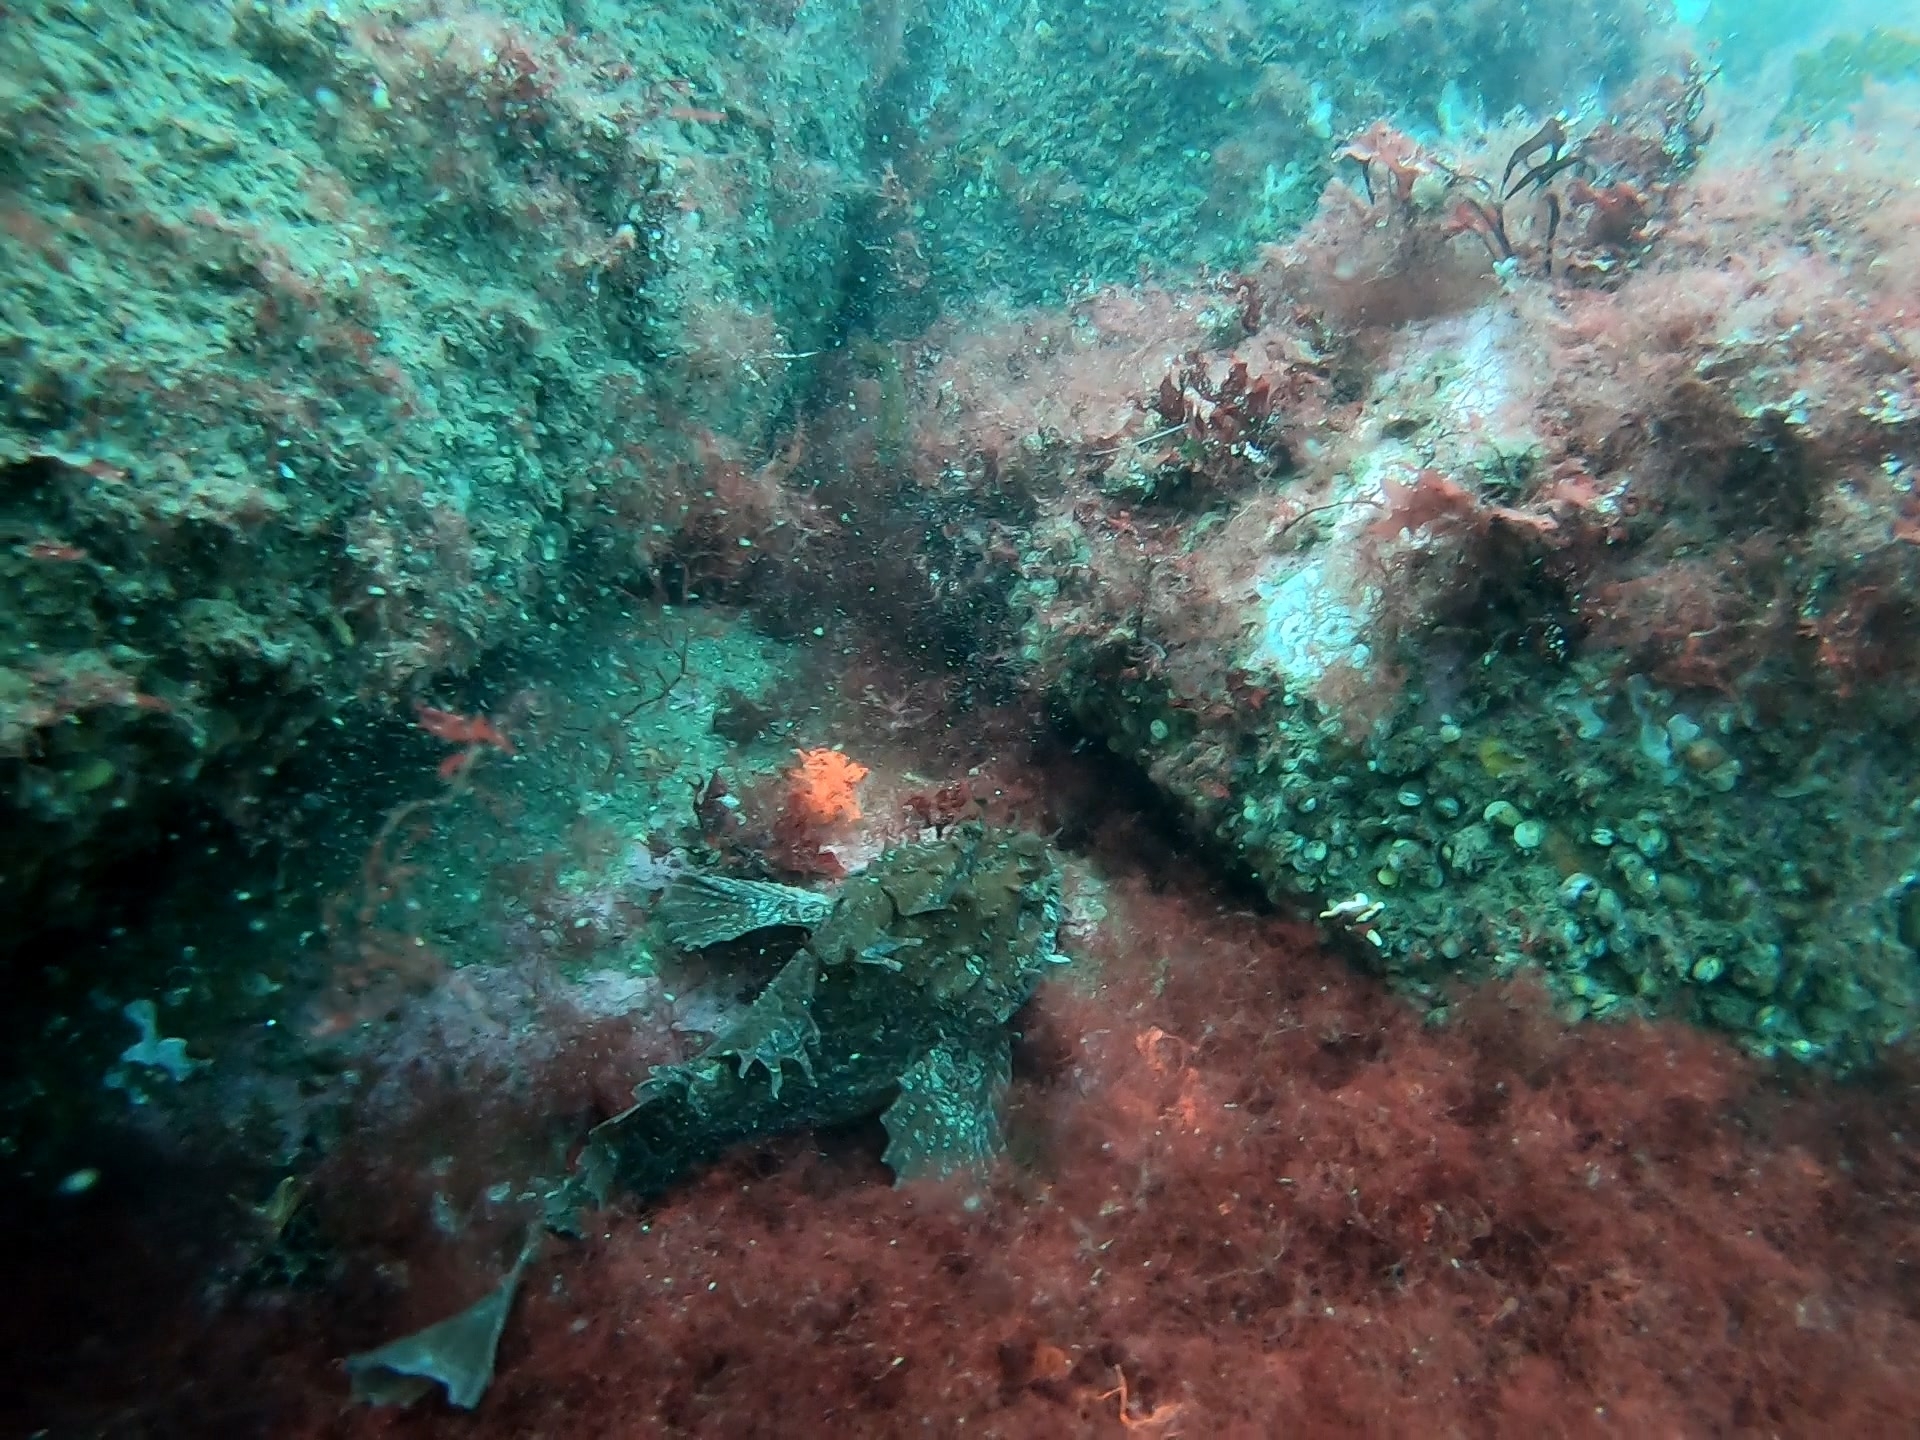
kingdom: Animalia
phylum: Chordata
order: Scorpaeniformes
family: Hemitripteridae
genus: Hemitripterus
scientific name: Hemitripterus americanus
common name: Sea raven
